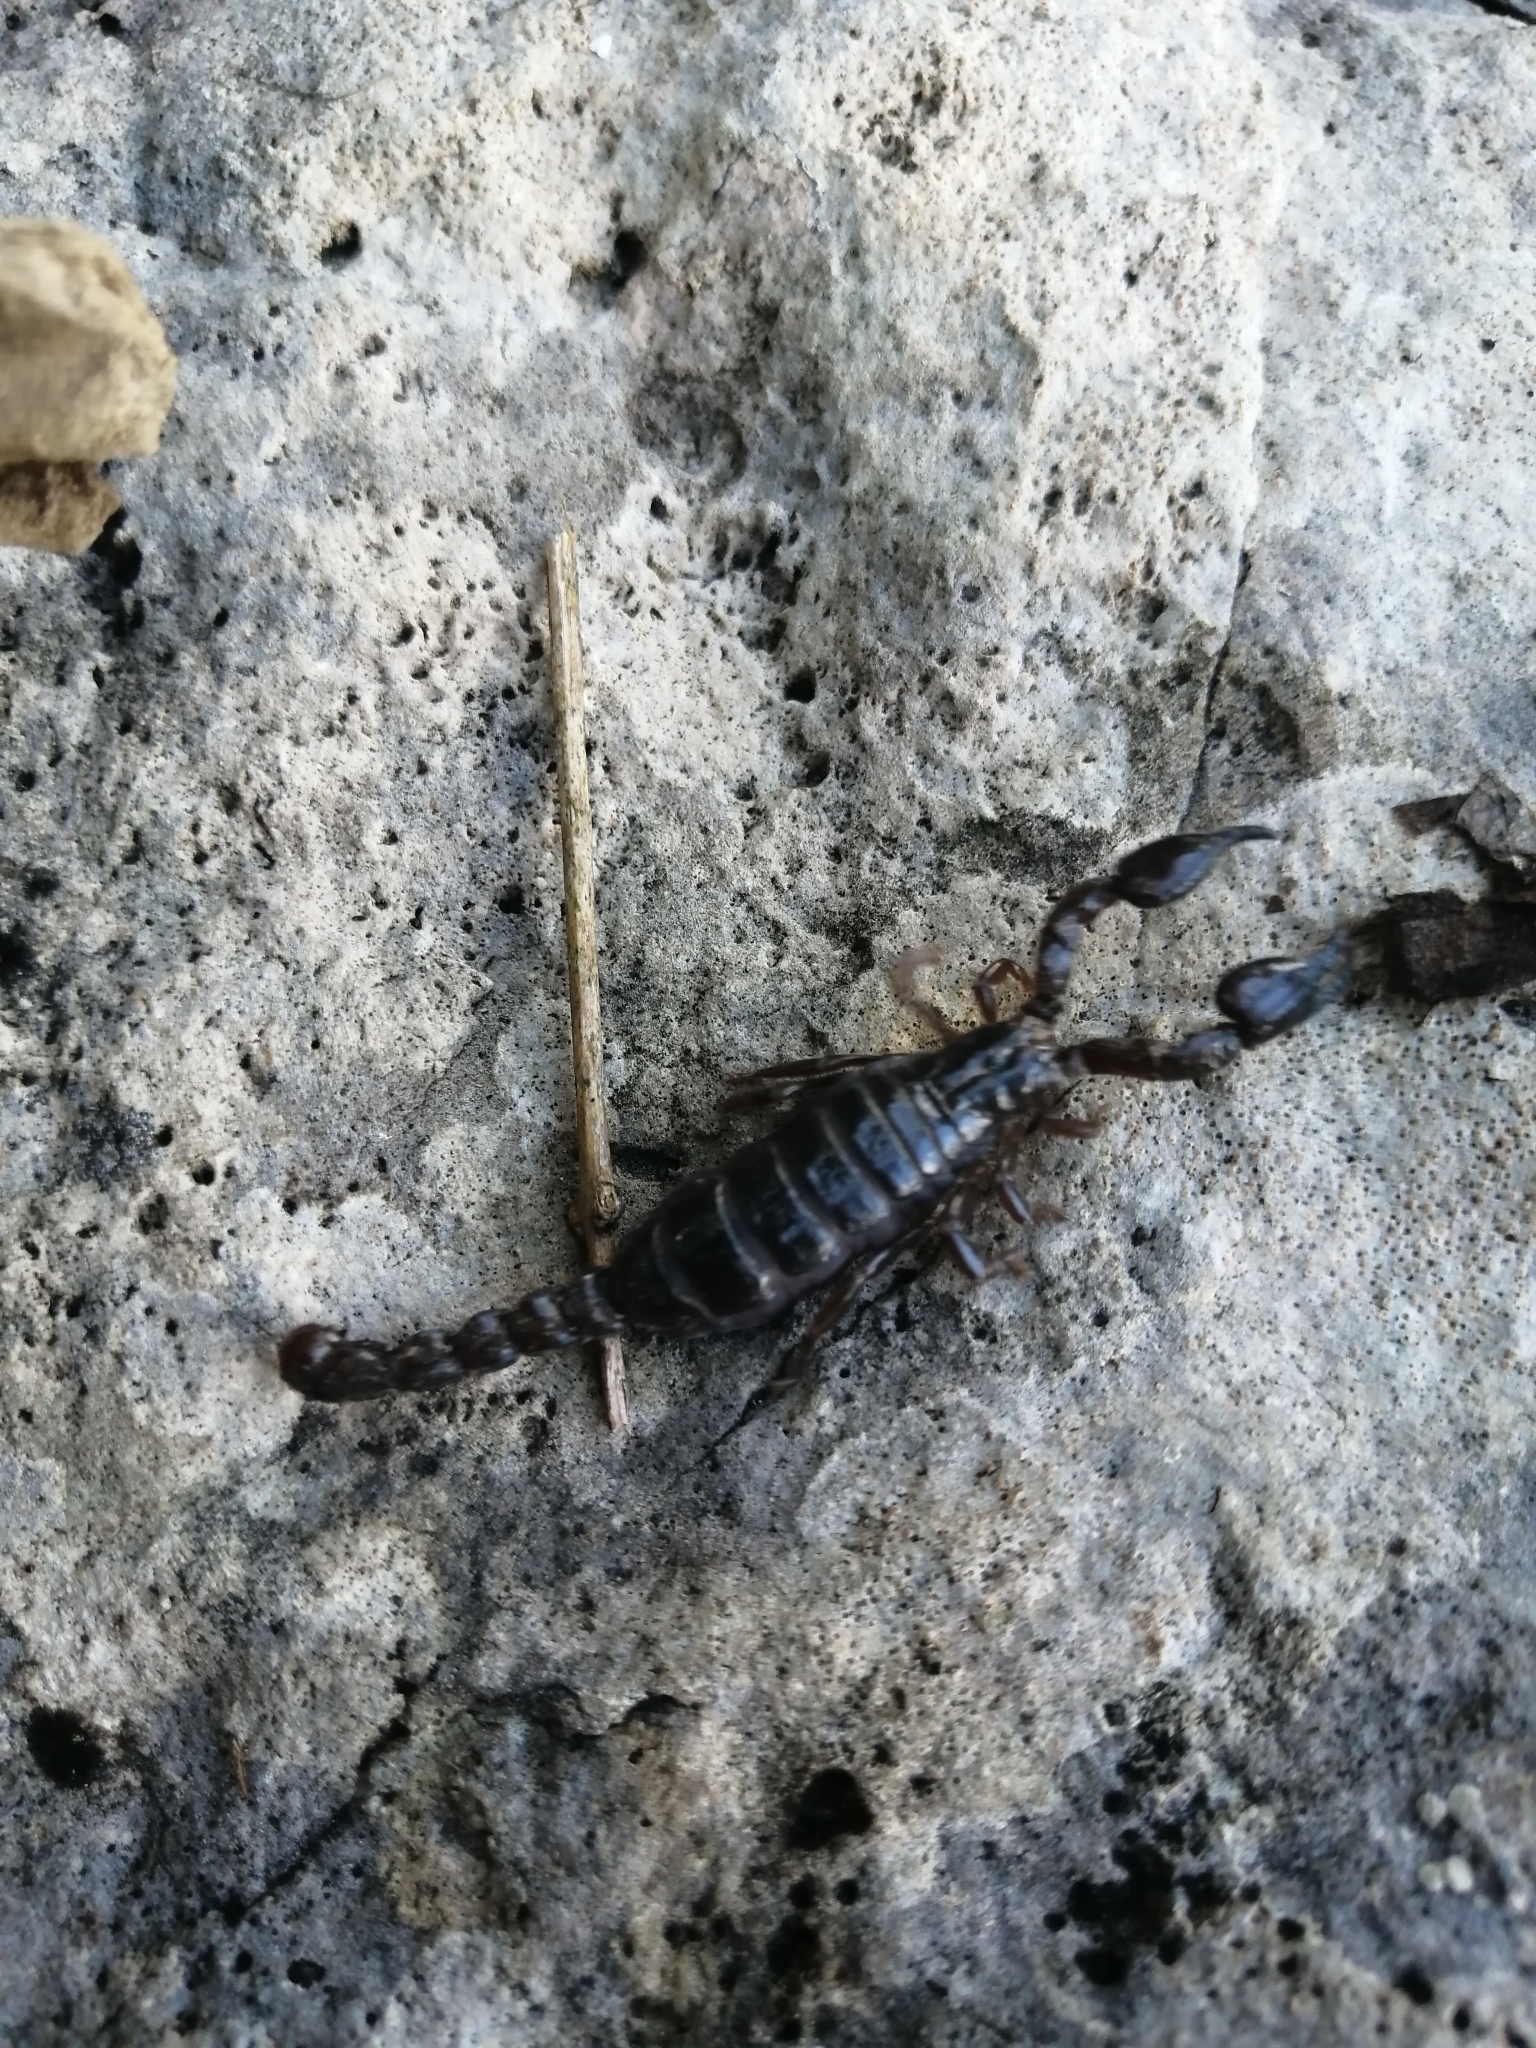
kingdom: Animalia
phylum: Arthropoda
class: Arachnida
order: Scorpiones
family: Diplocentridae
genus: Diplocentrus
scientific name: Diplocentrus reddelli
